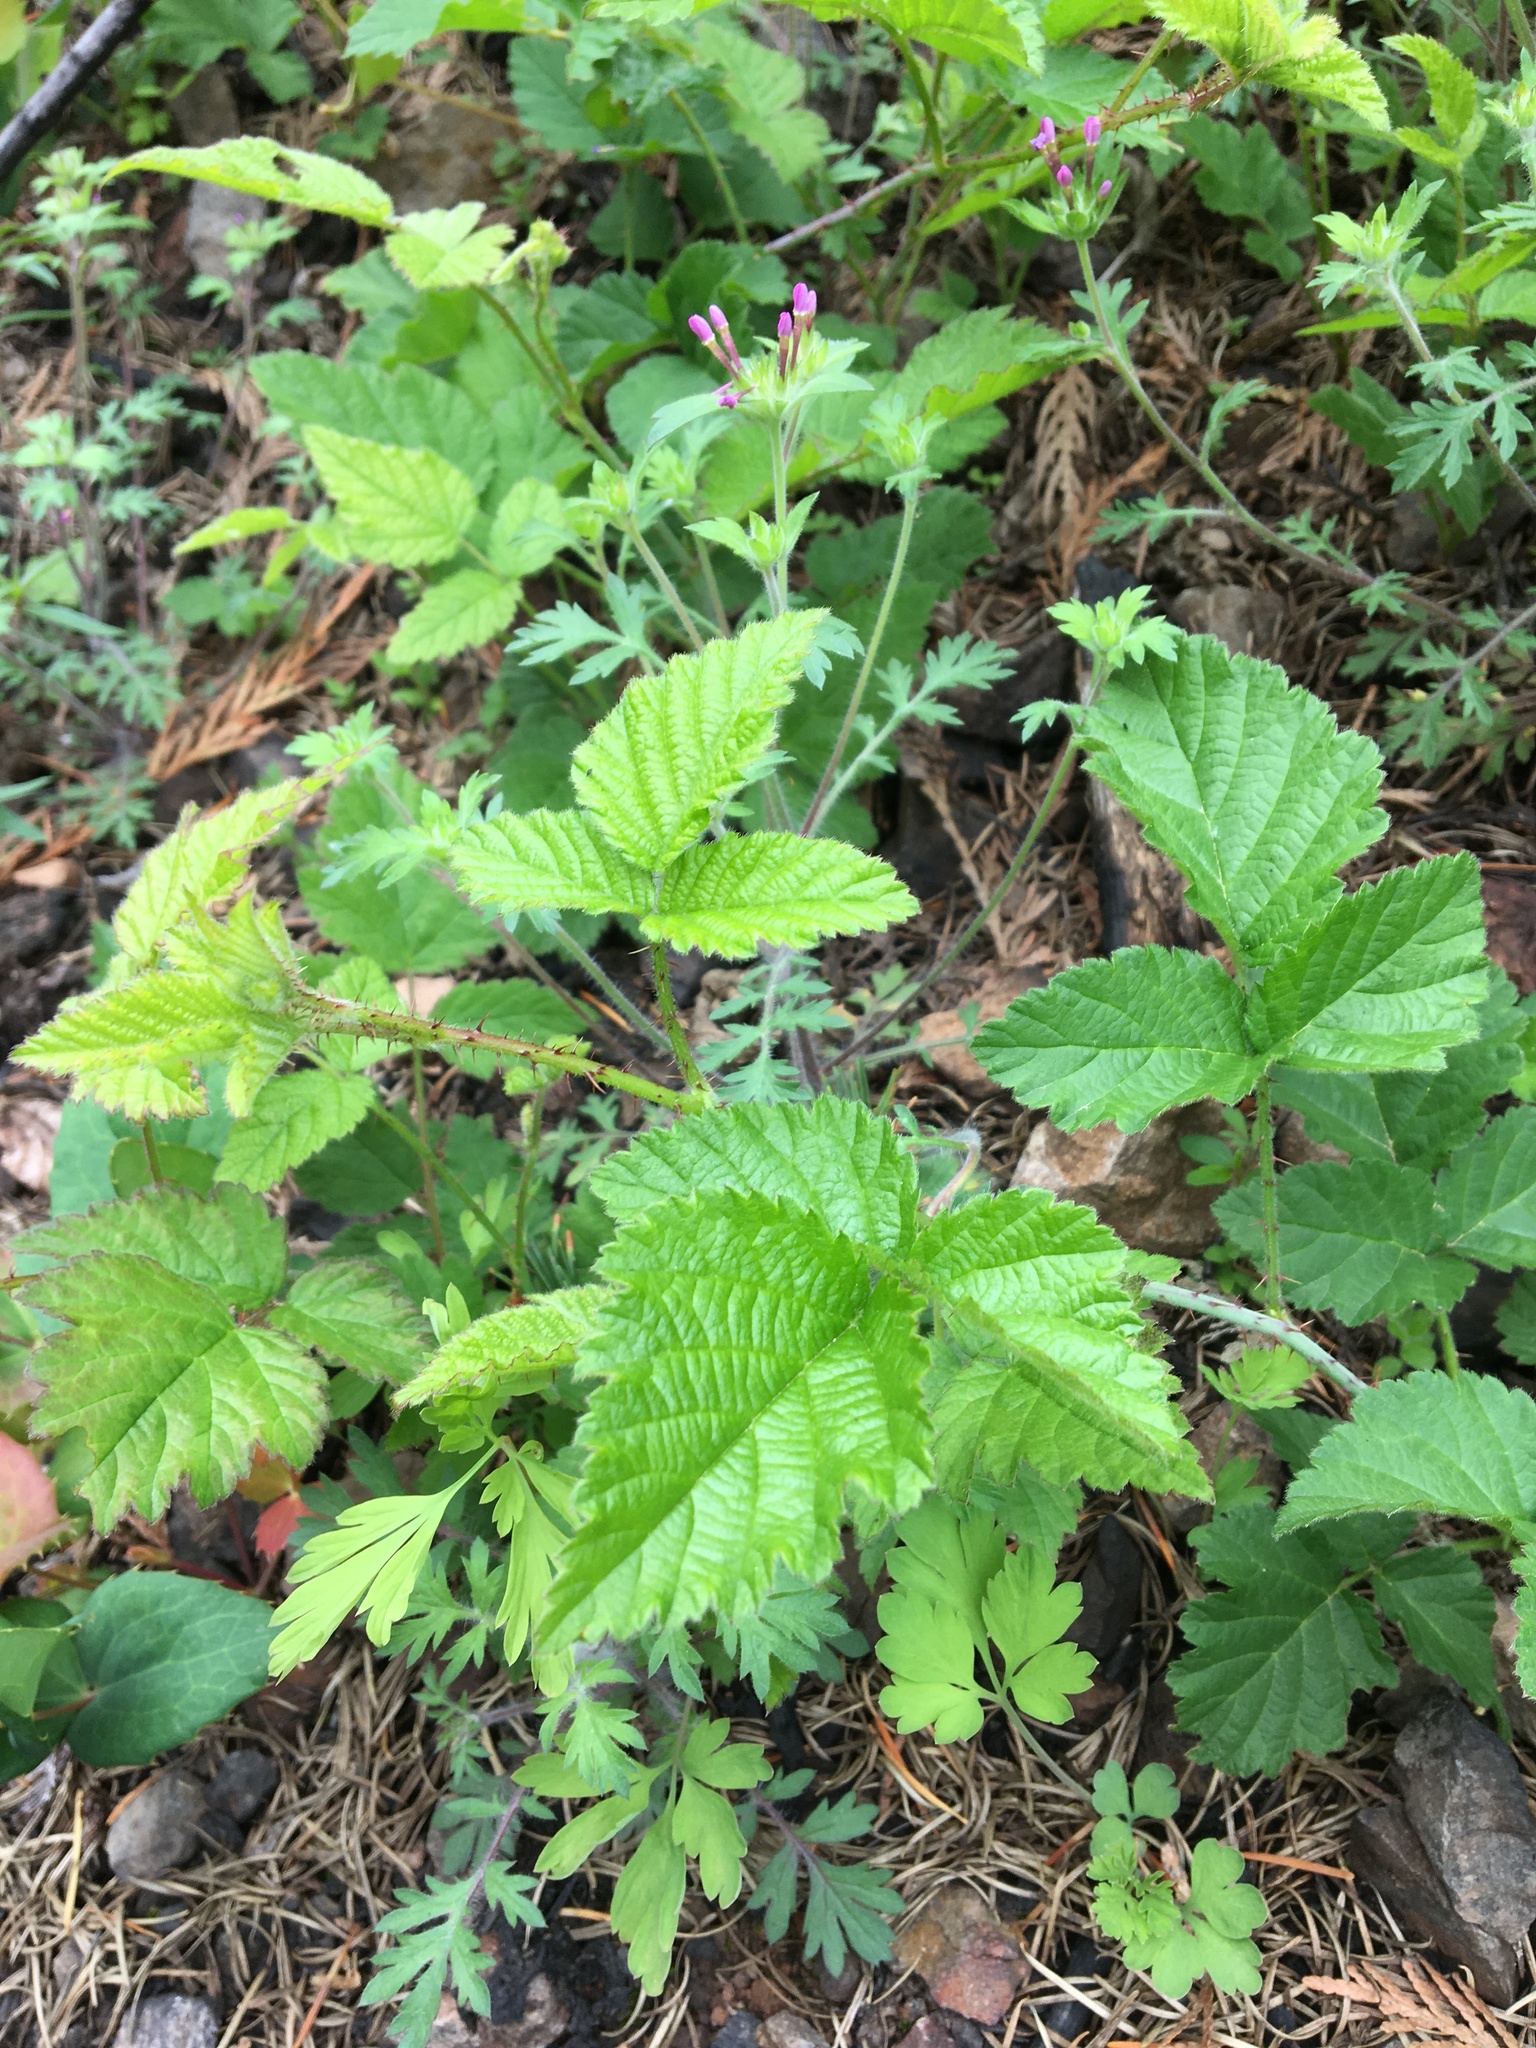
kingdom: Plantae
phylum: Tracheophyta
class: Magnoliopsida
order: Rosales
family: Rosaceae
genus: Rubus
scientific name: Rubus ursinus
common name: Pacific blackberry
